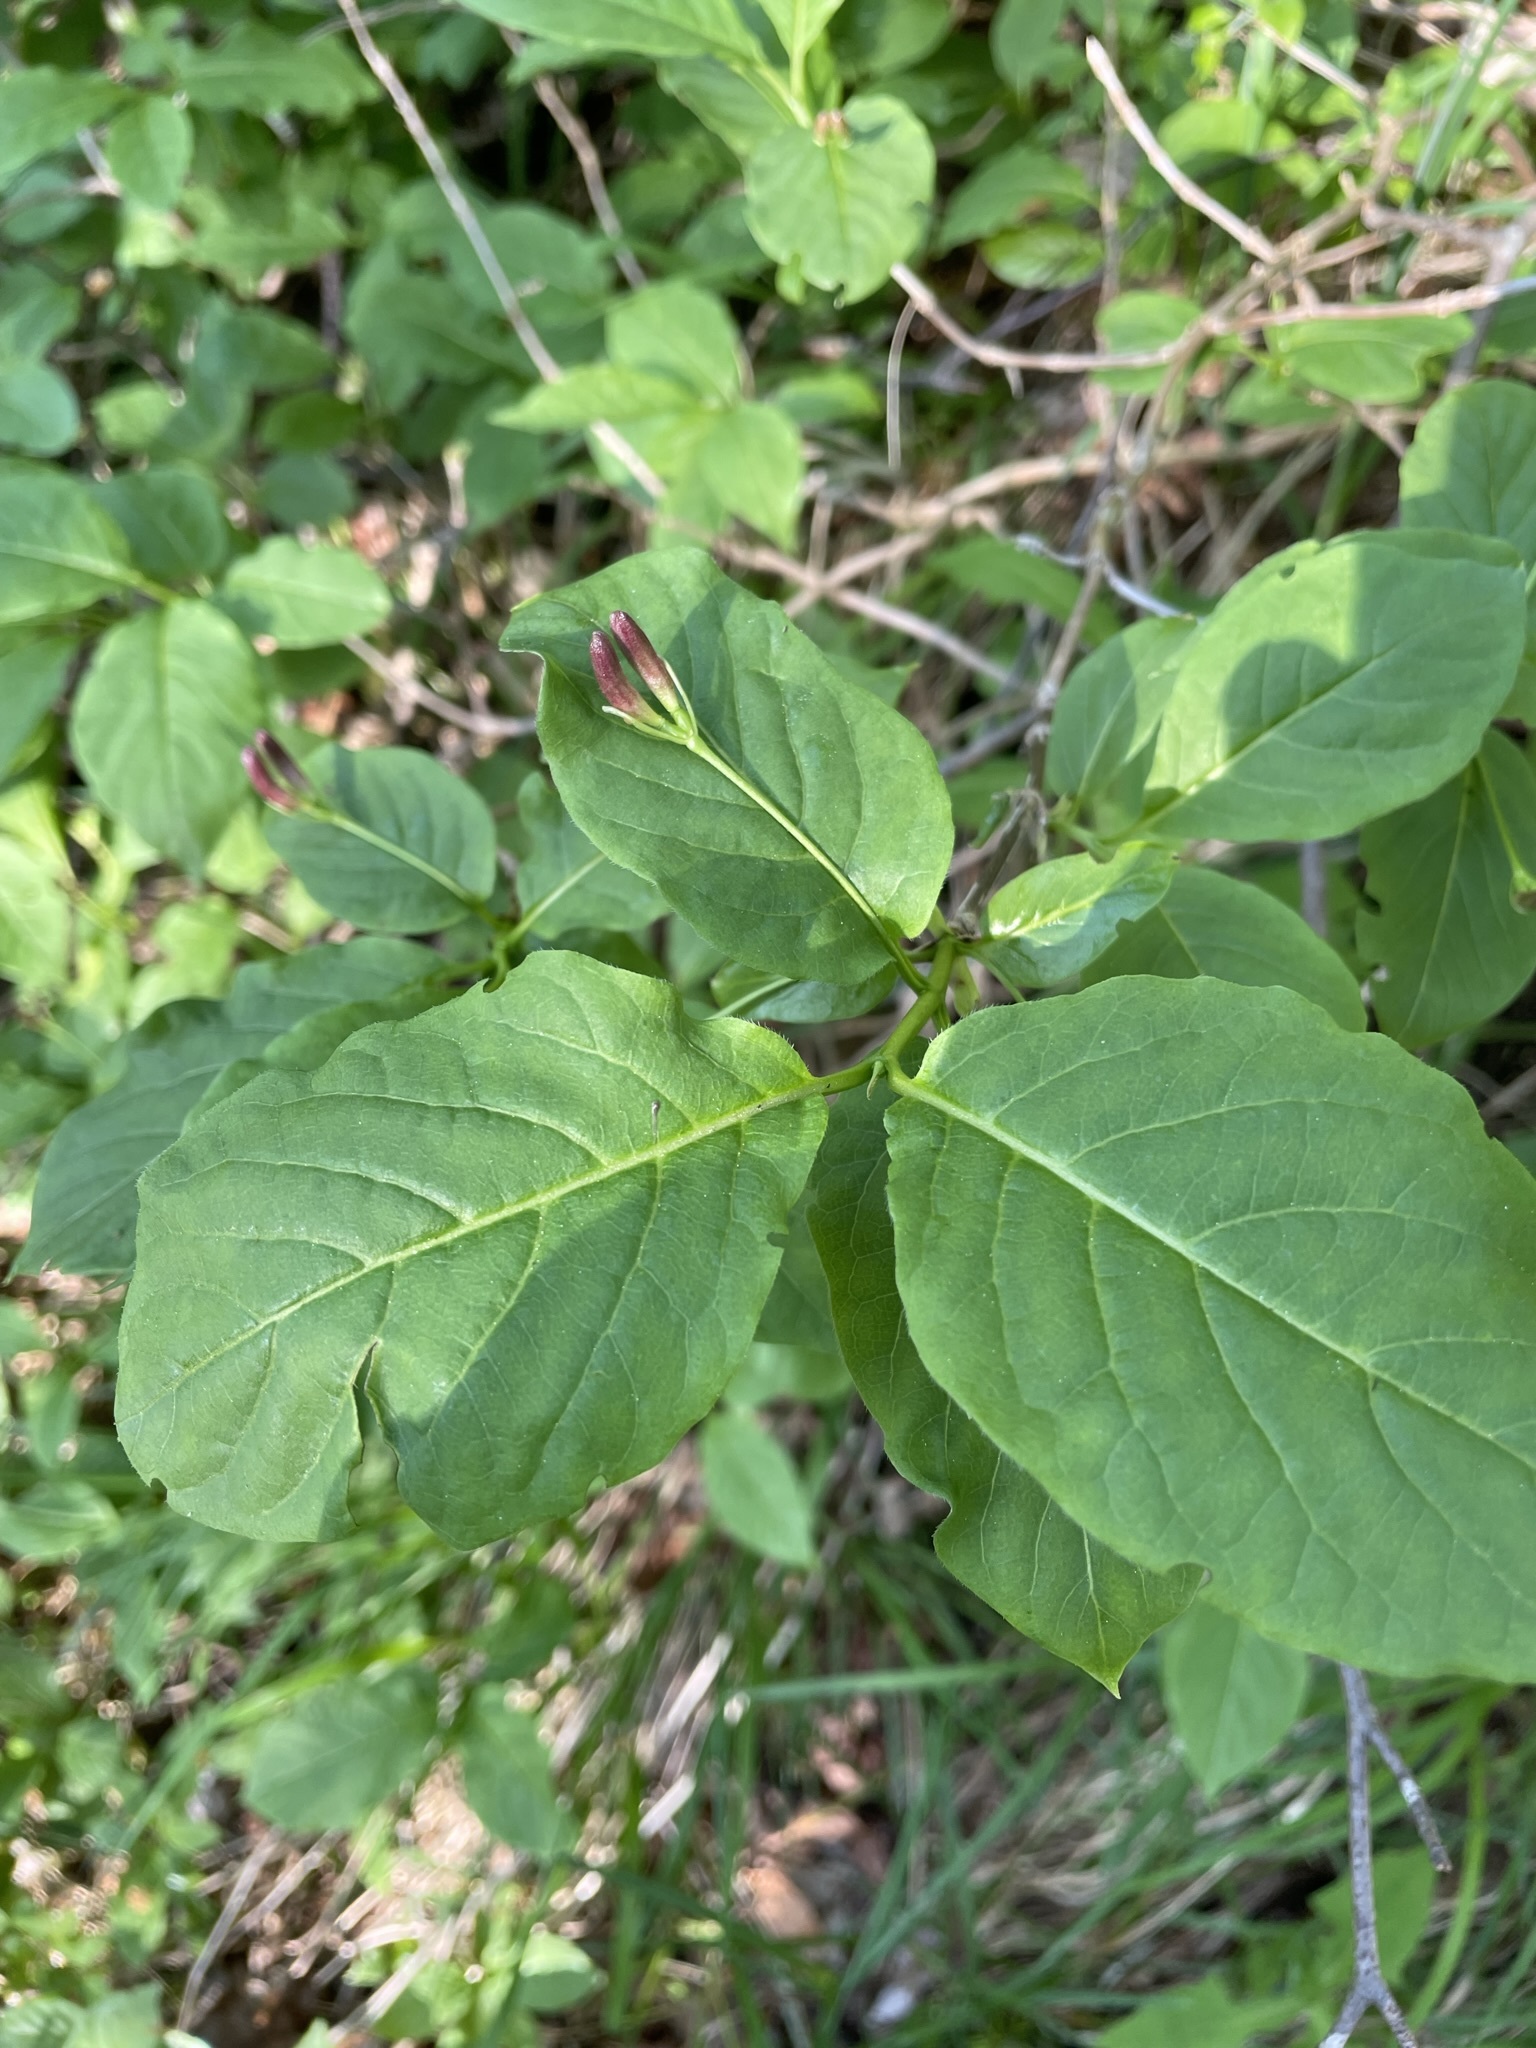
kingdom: Plantae
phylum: Tracheophyta
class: Magnoliopsida
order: Dipsacales
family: Caprifoliaceae
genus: Lonicera
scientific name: Lonicera alpigena
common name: Alpine honeysuckle
